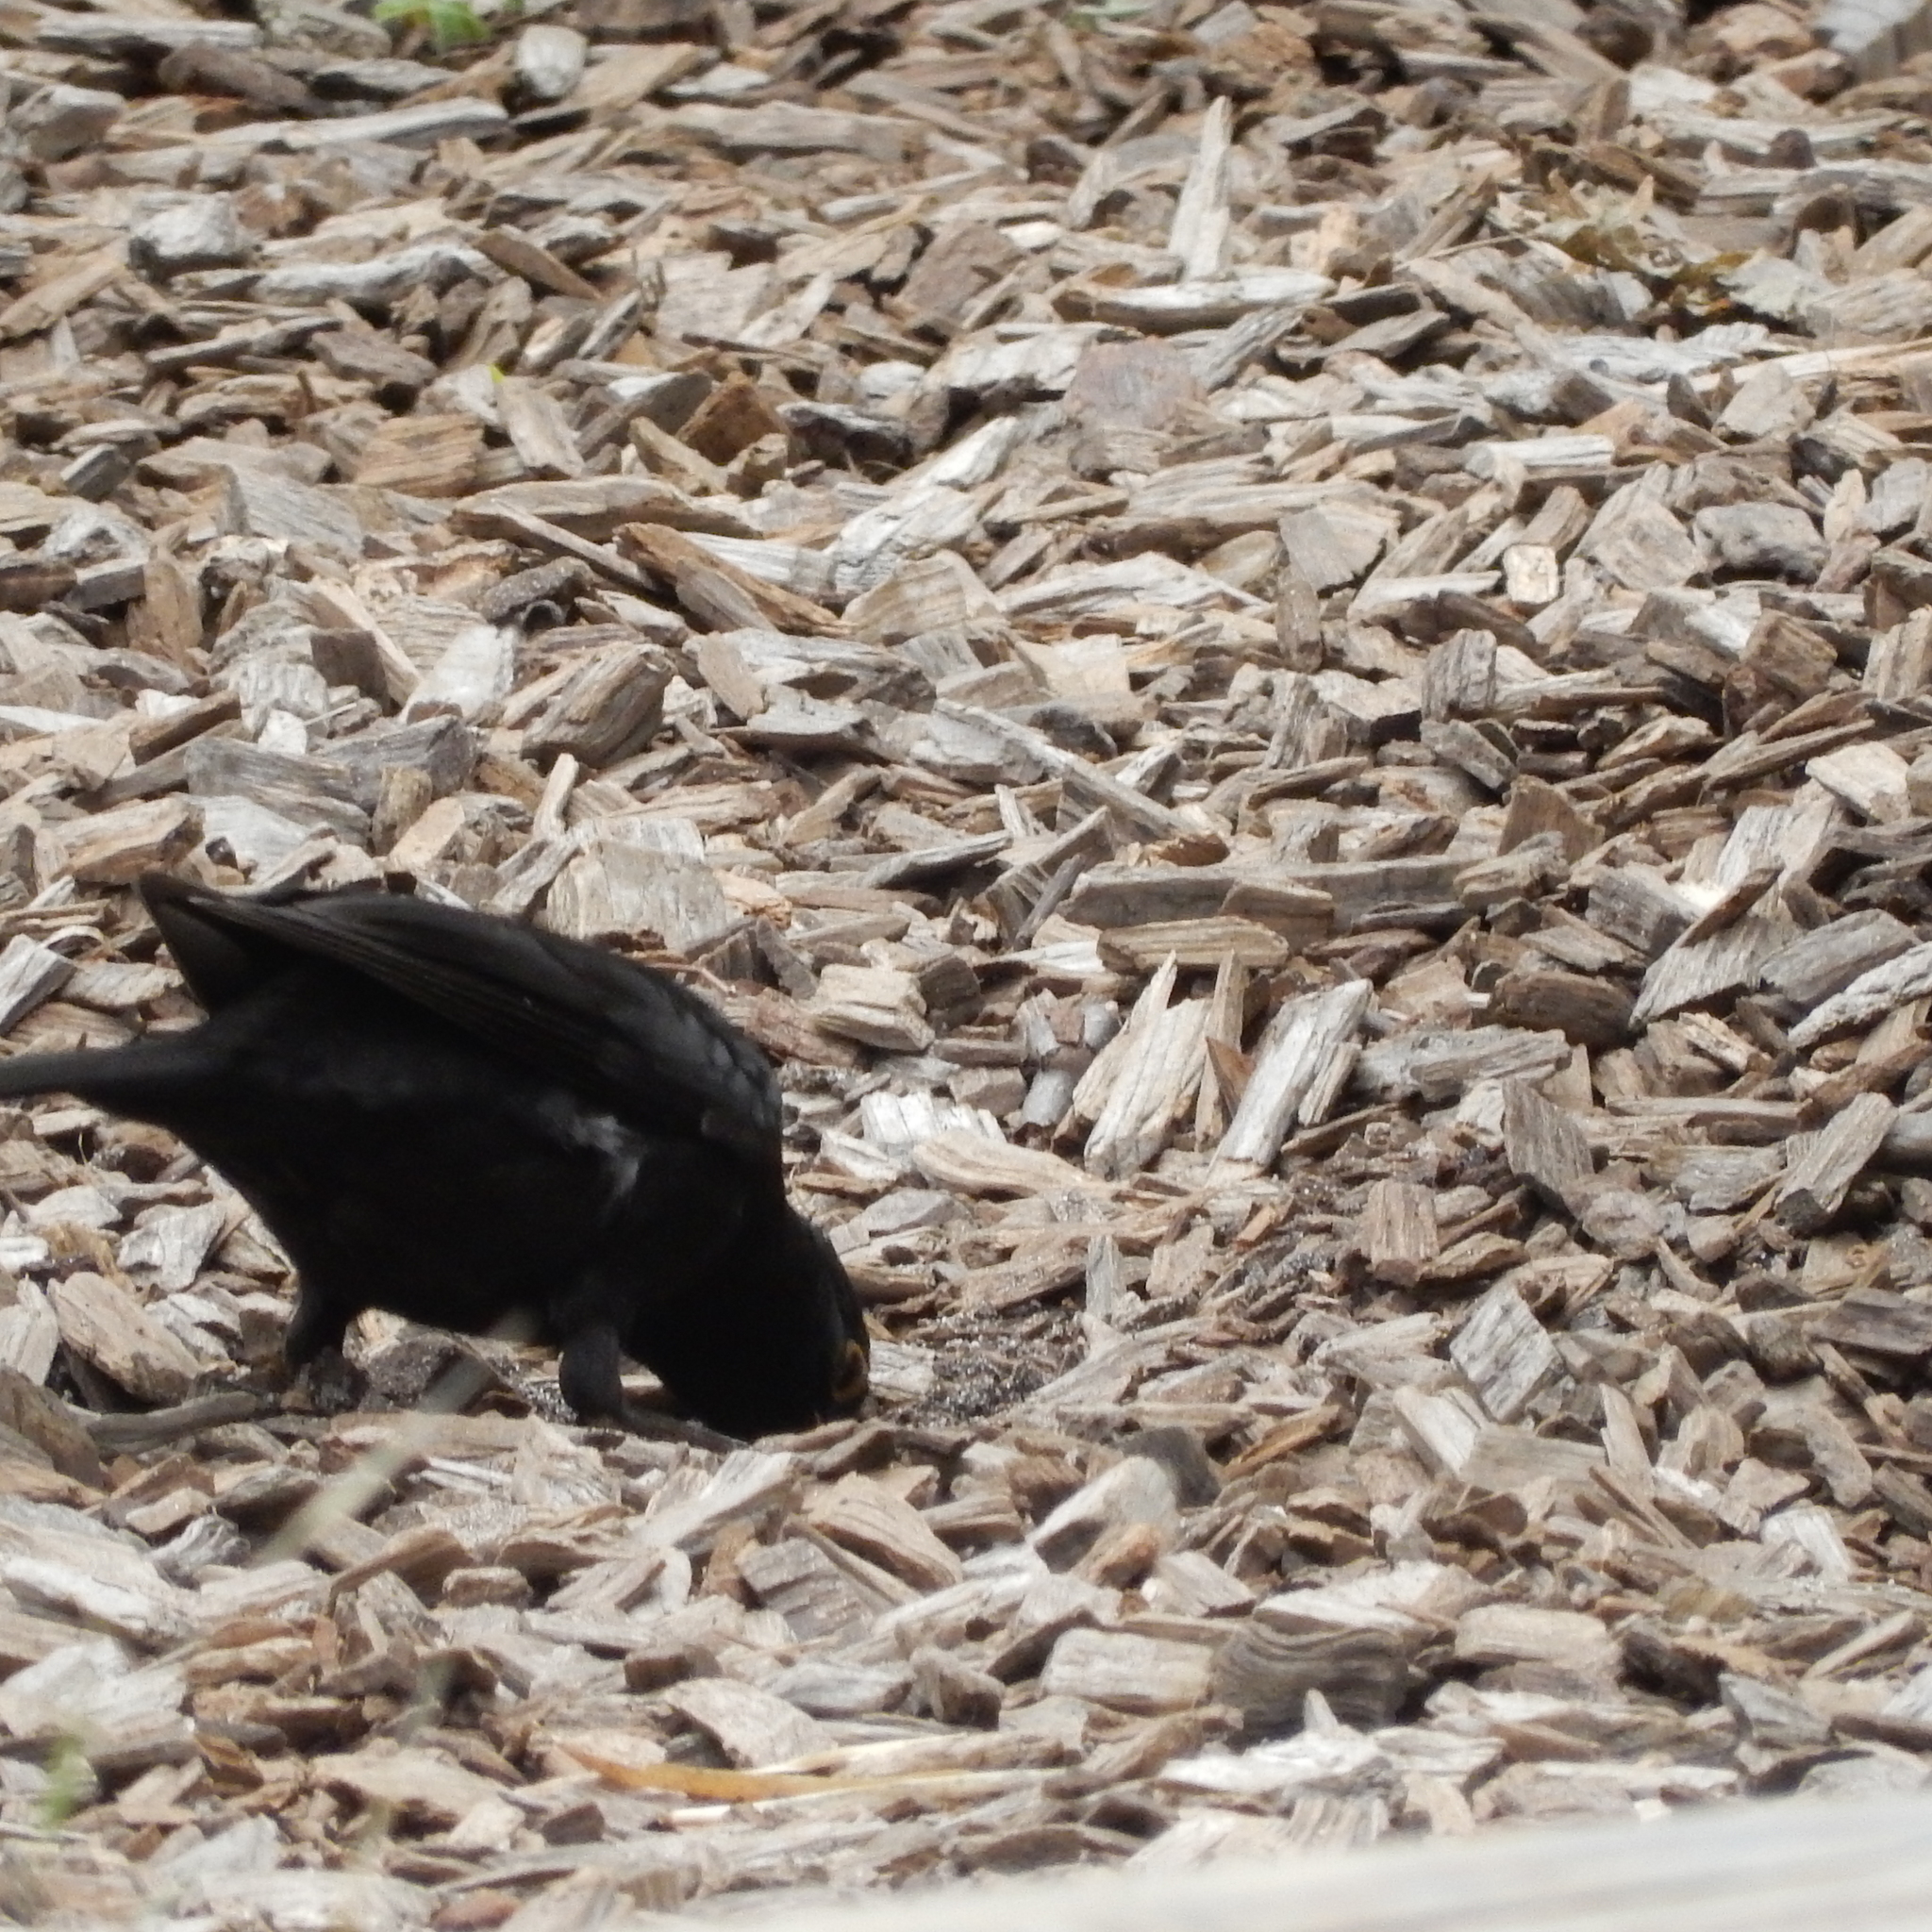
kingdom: Animalia
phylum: Chordata
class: Aves
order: Passeriformes
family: Turdidae
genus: Turdus
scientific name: Turdus merula
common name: Common blackbird
